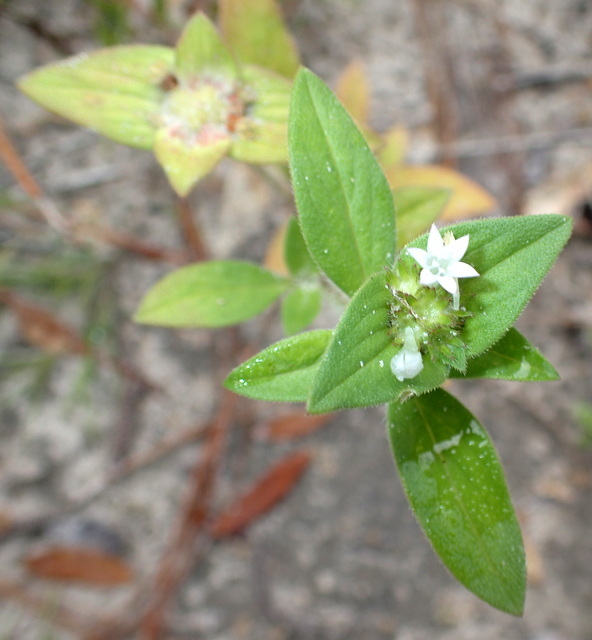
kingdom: Plantae
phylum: Tracheophyta
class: Magnoliopsida
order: Gentianales
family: Rubiaceae
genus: Richardia
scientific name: Richardia scabra
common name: Rough mexican clover
